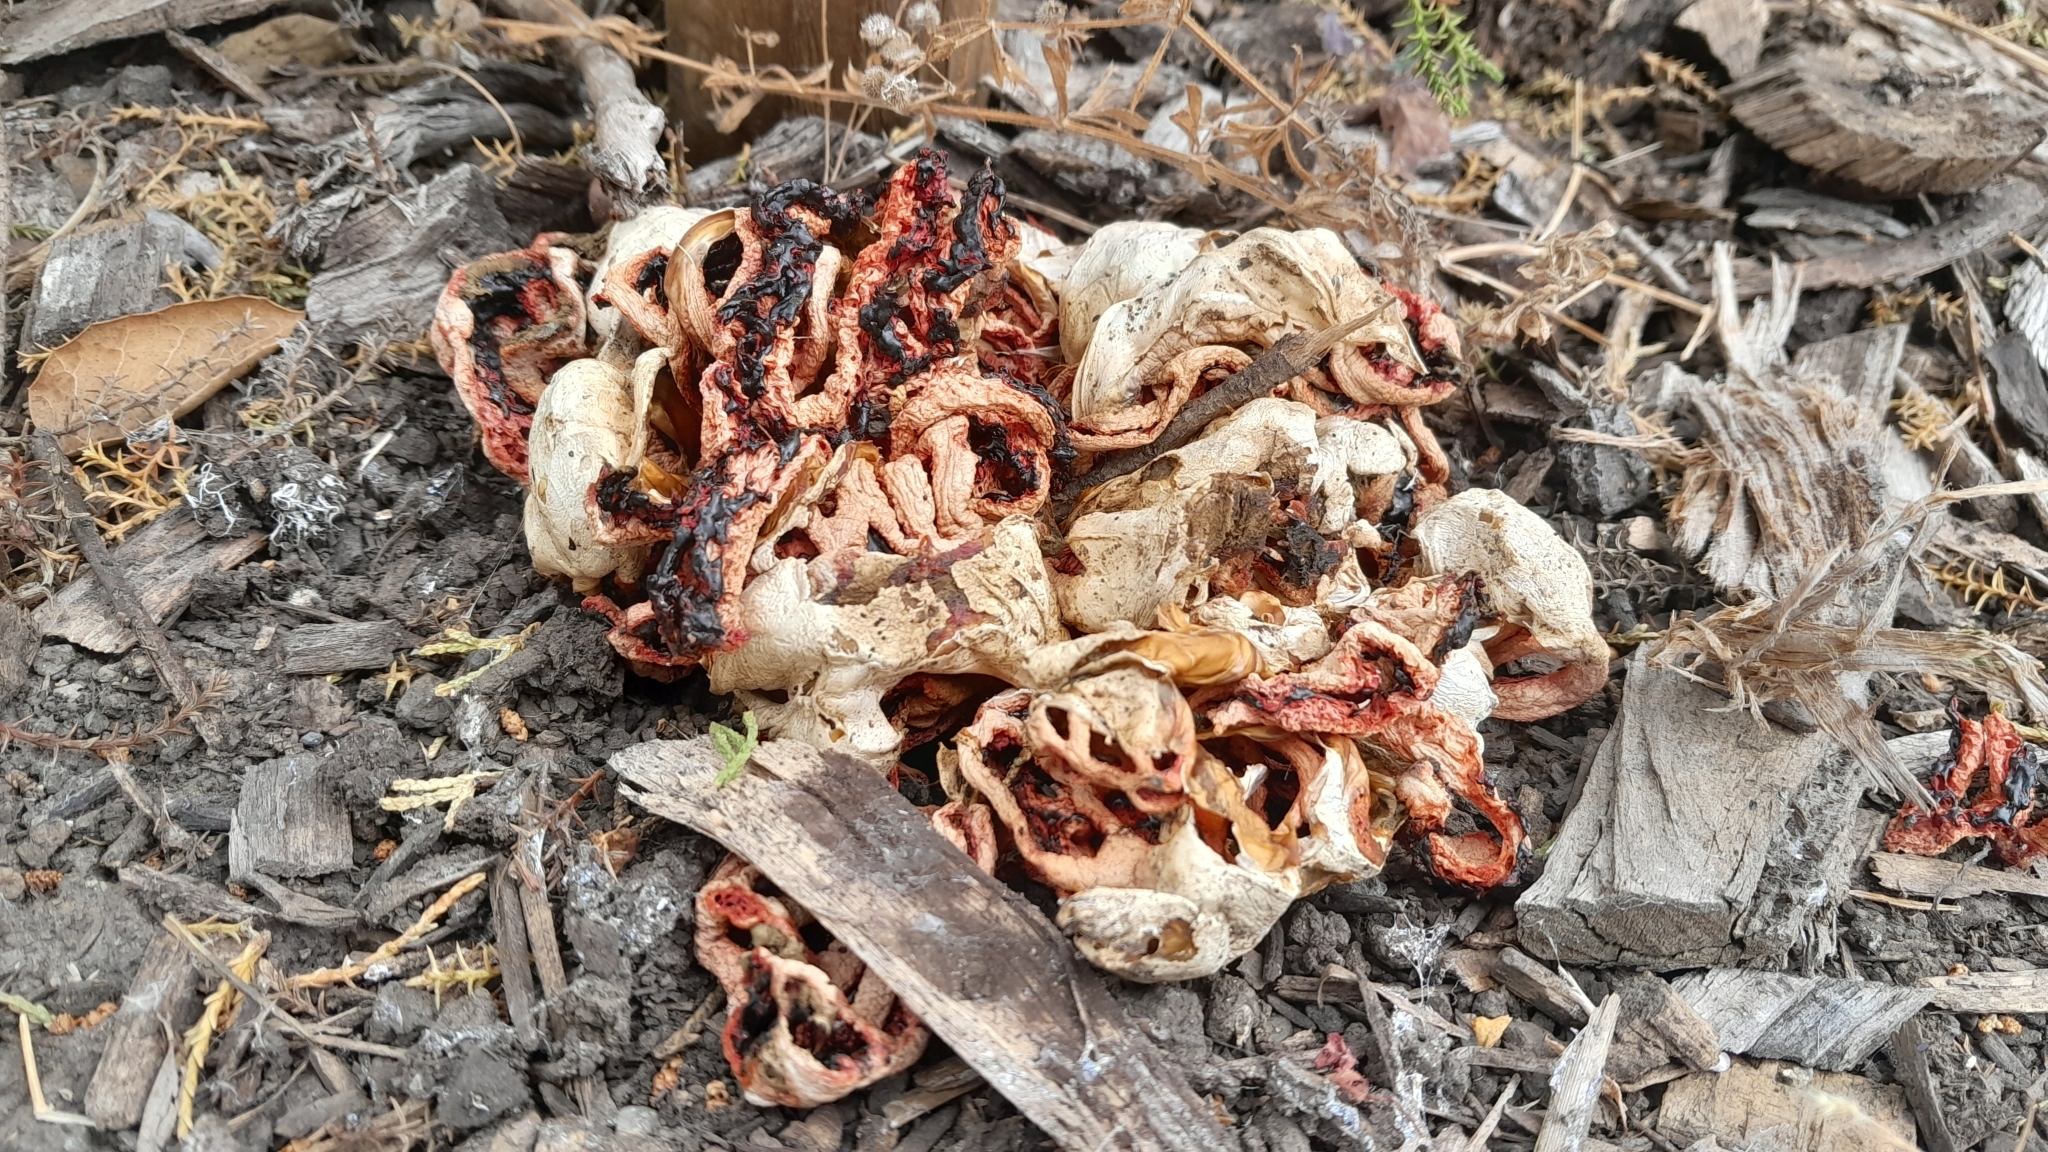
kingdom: Fungi
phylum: Basidiomycota
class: Agaricomycetes
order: Phallales
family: Phallaceae
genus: Clathrus
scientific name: Clathrus ruber
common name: Red cage
